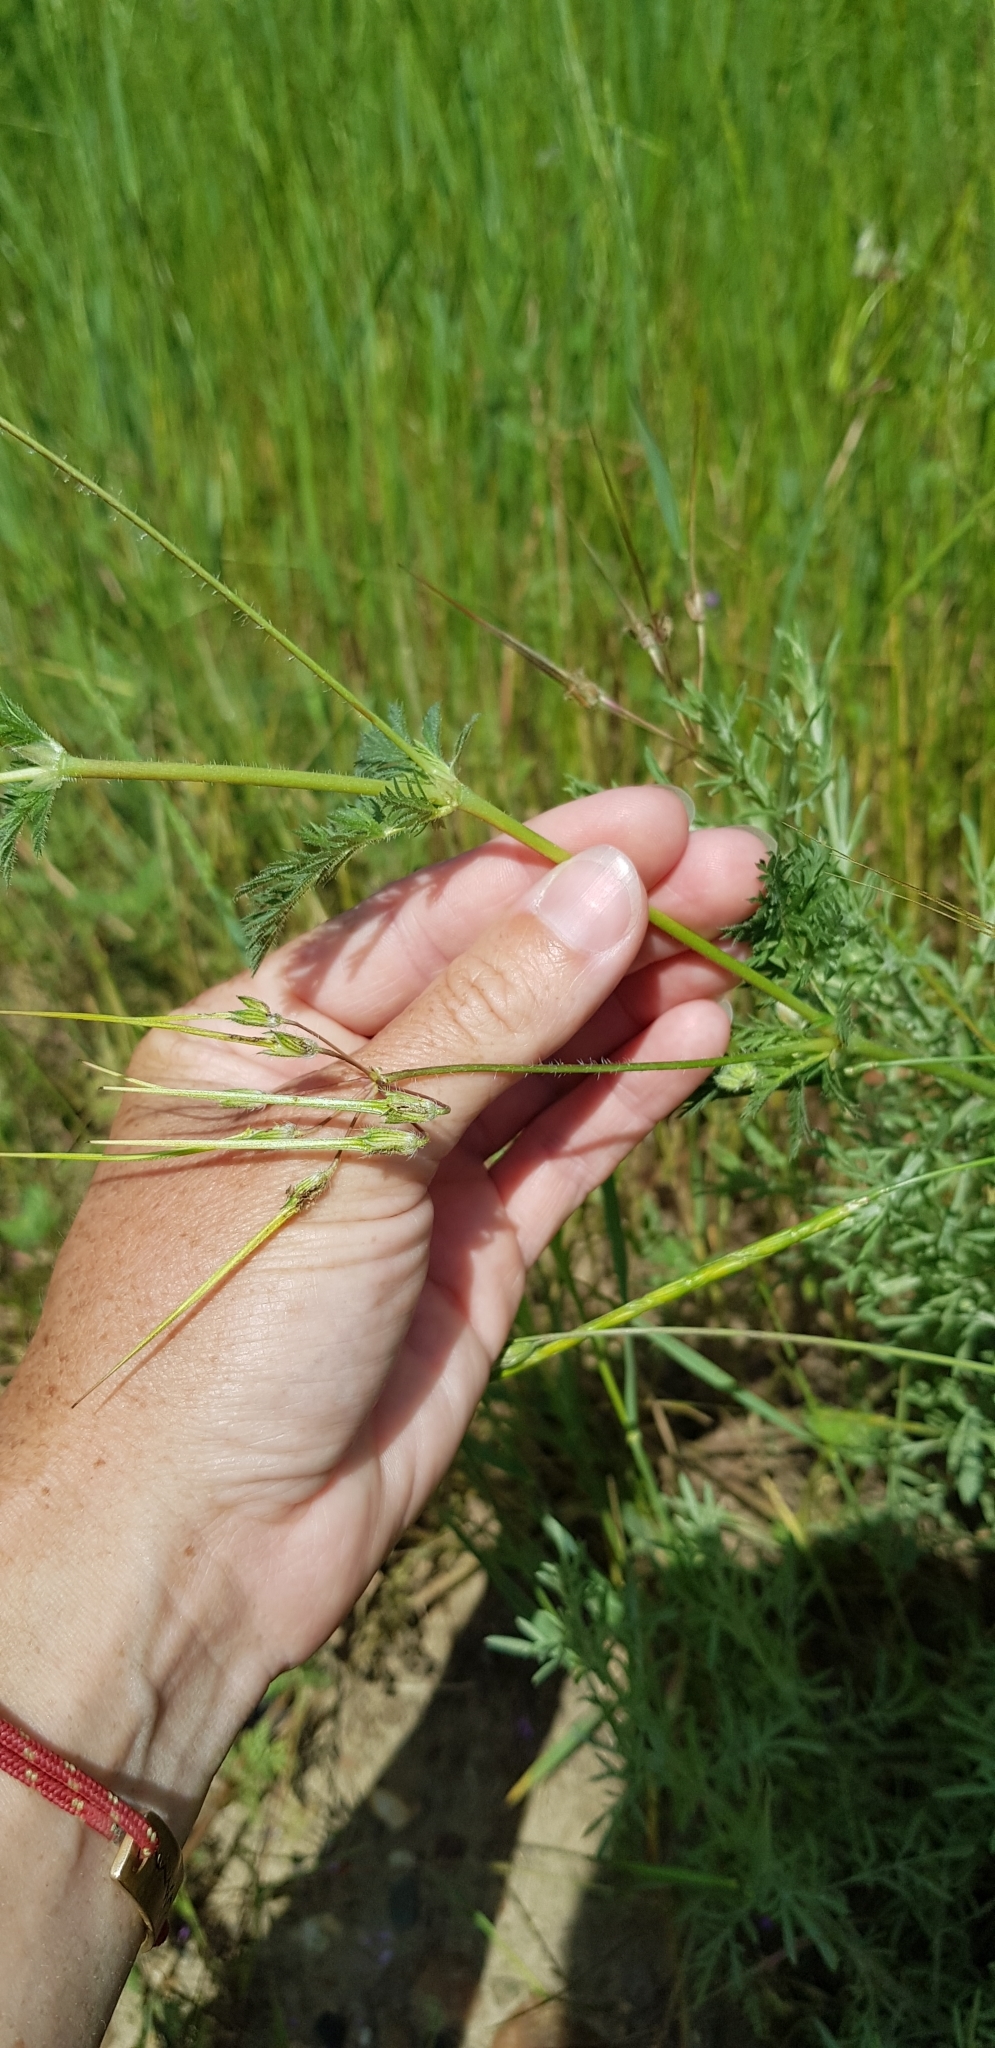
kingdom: Plantae
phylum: Tracheophyta
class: Magnoliopsida
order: Geraniales
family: Geraniaceae
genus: Erodium
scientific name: Erodium cicutarium
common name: Common stork's-bill
